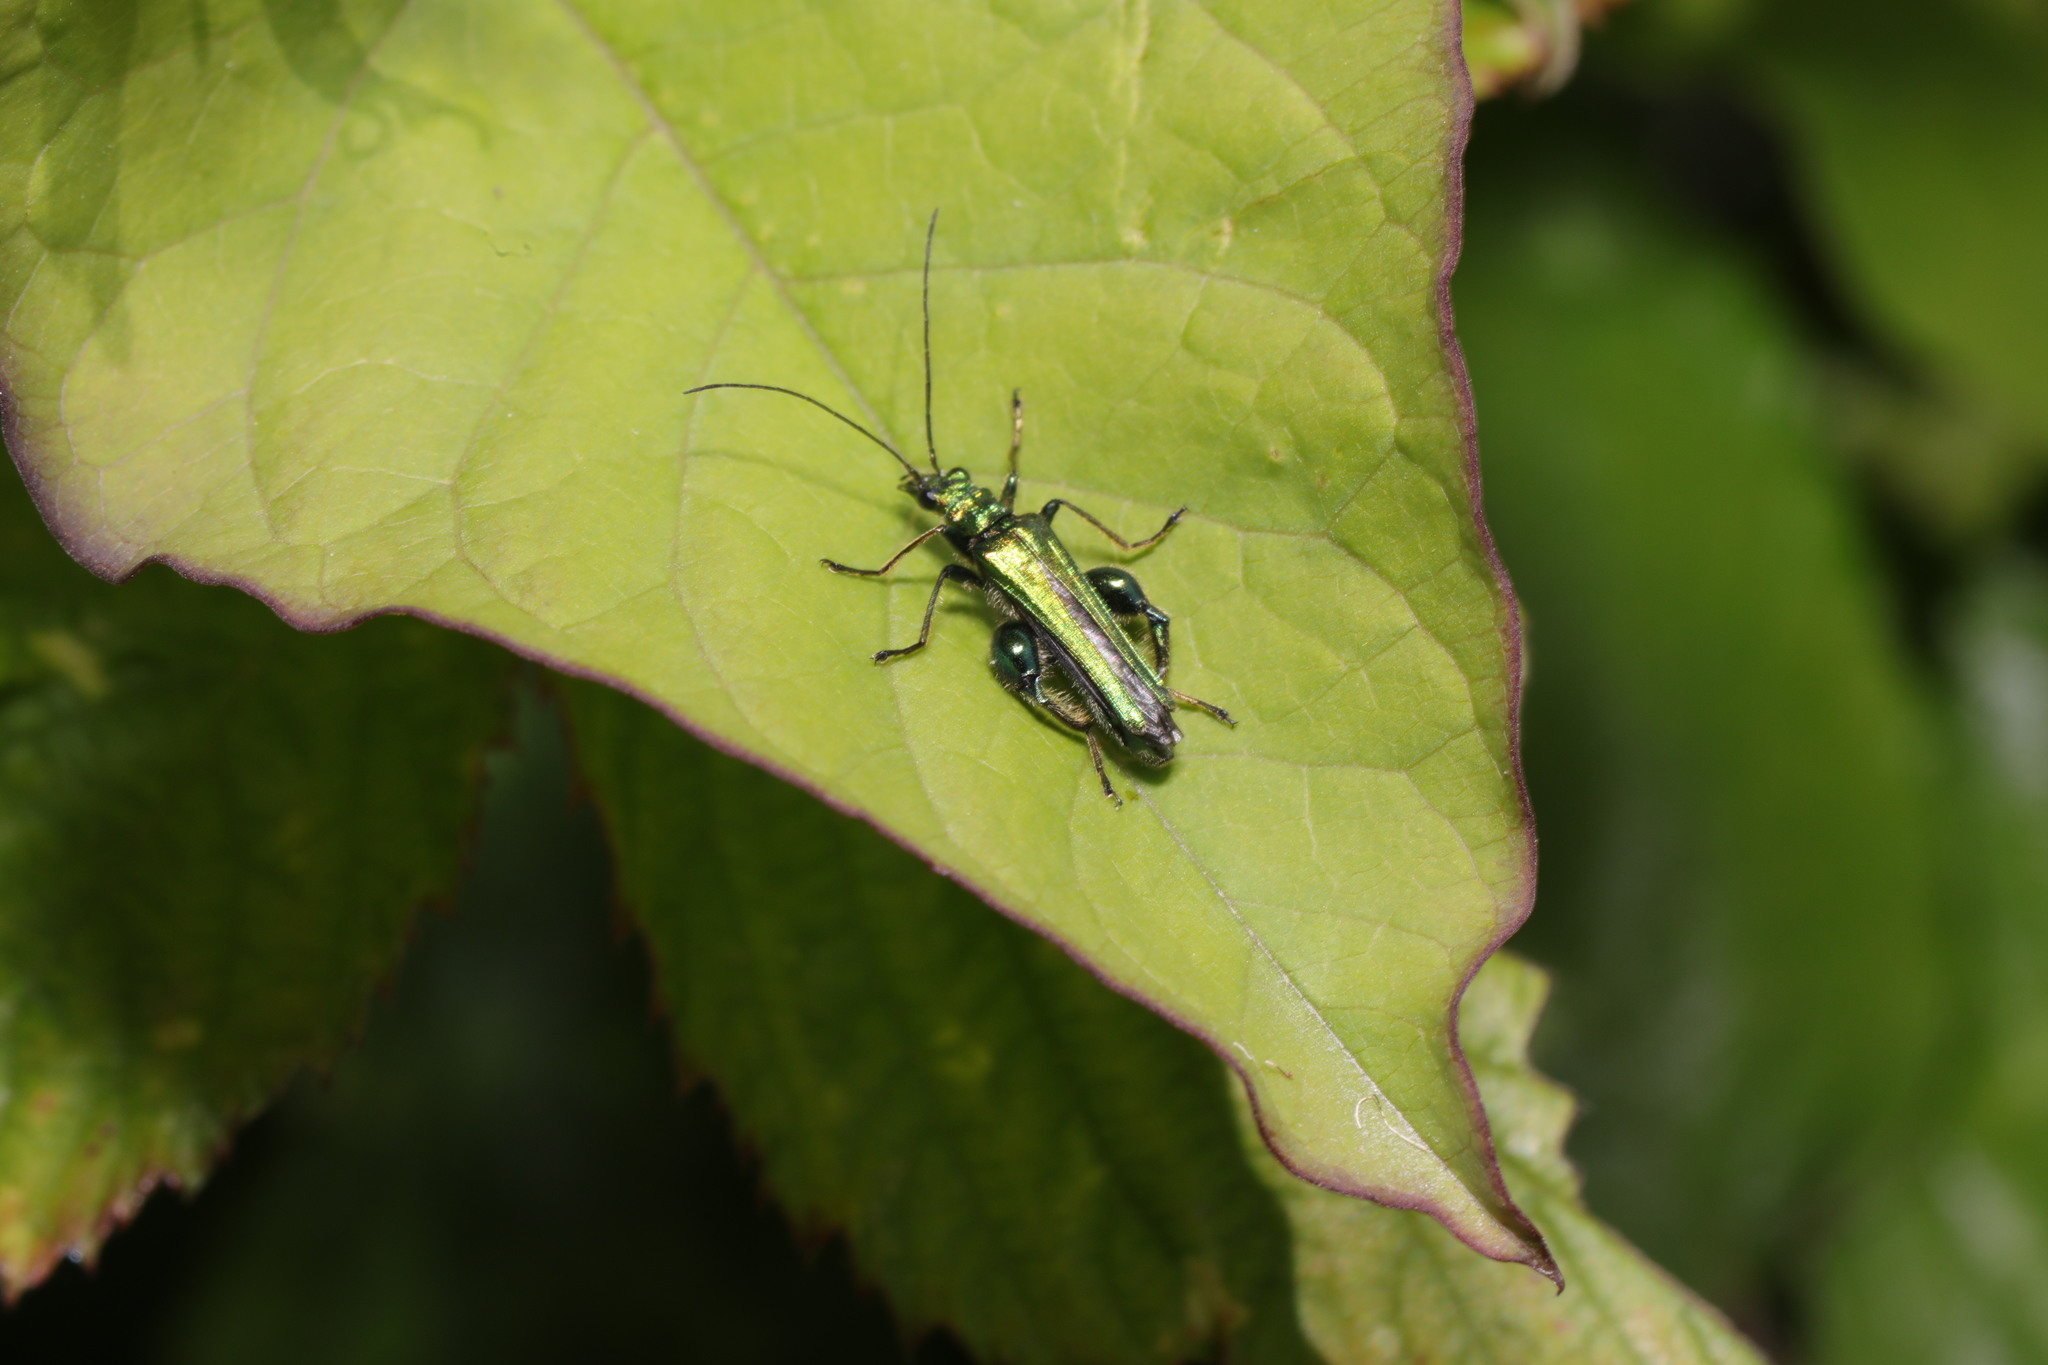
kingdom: Animalia
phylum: Arthropoda
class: Insecta
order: Coleoptera
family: Oedemeridae
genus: Oedemera
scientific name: Oedemera nobilis
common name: Swollen-thighed beetle
